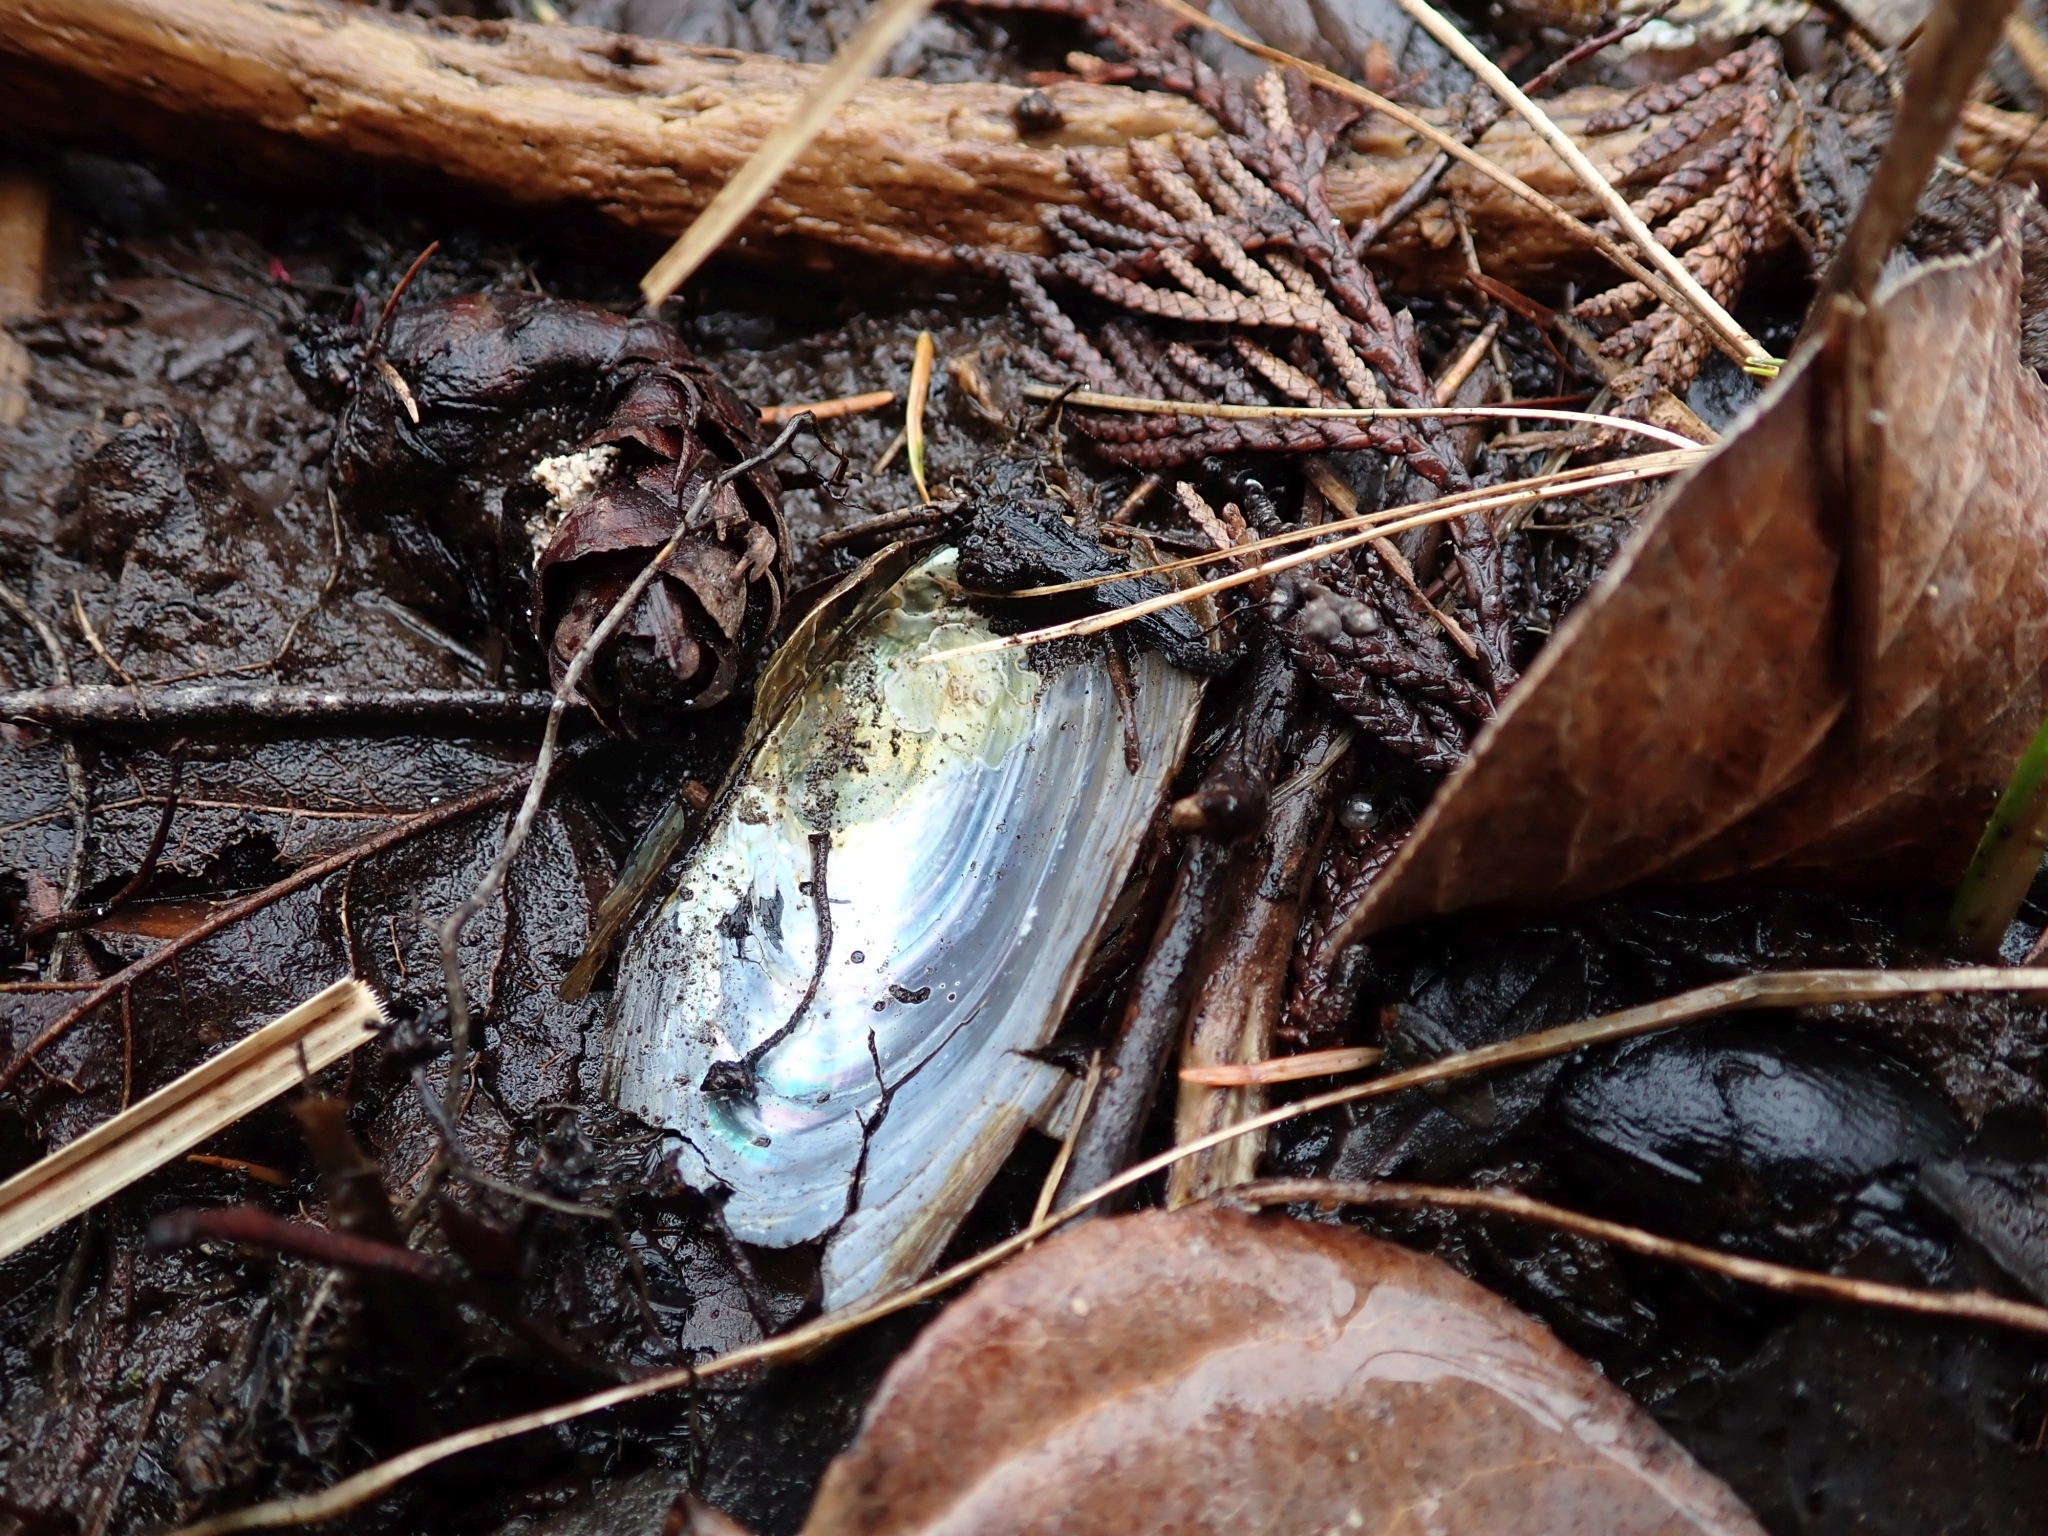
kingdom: Animalia
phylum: Mollusca
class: Bivalvia
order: Unionida
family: Unionidae
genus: Anodonta
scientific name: Anodonta kennerlyi
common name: Western floater
